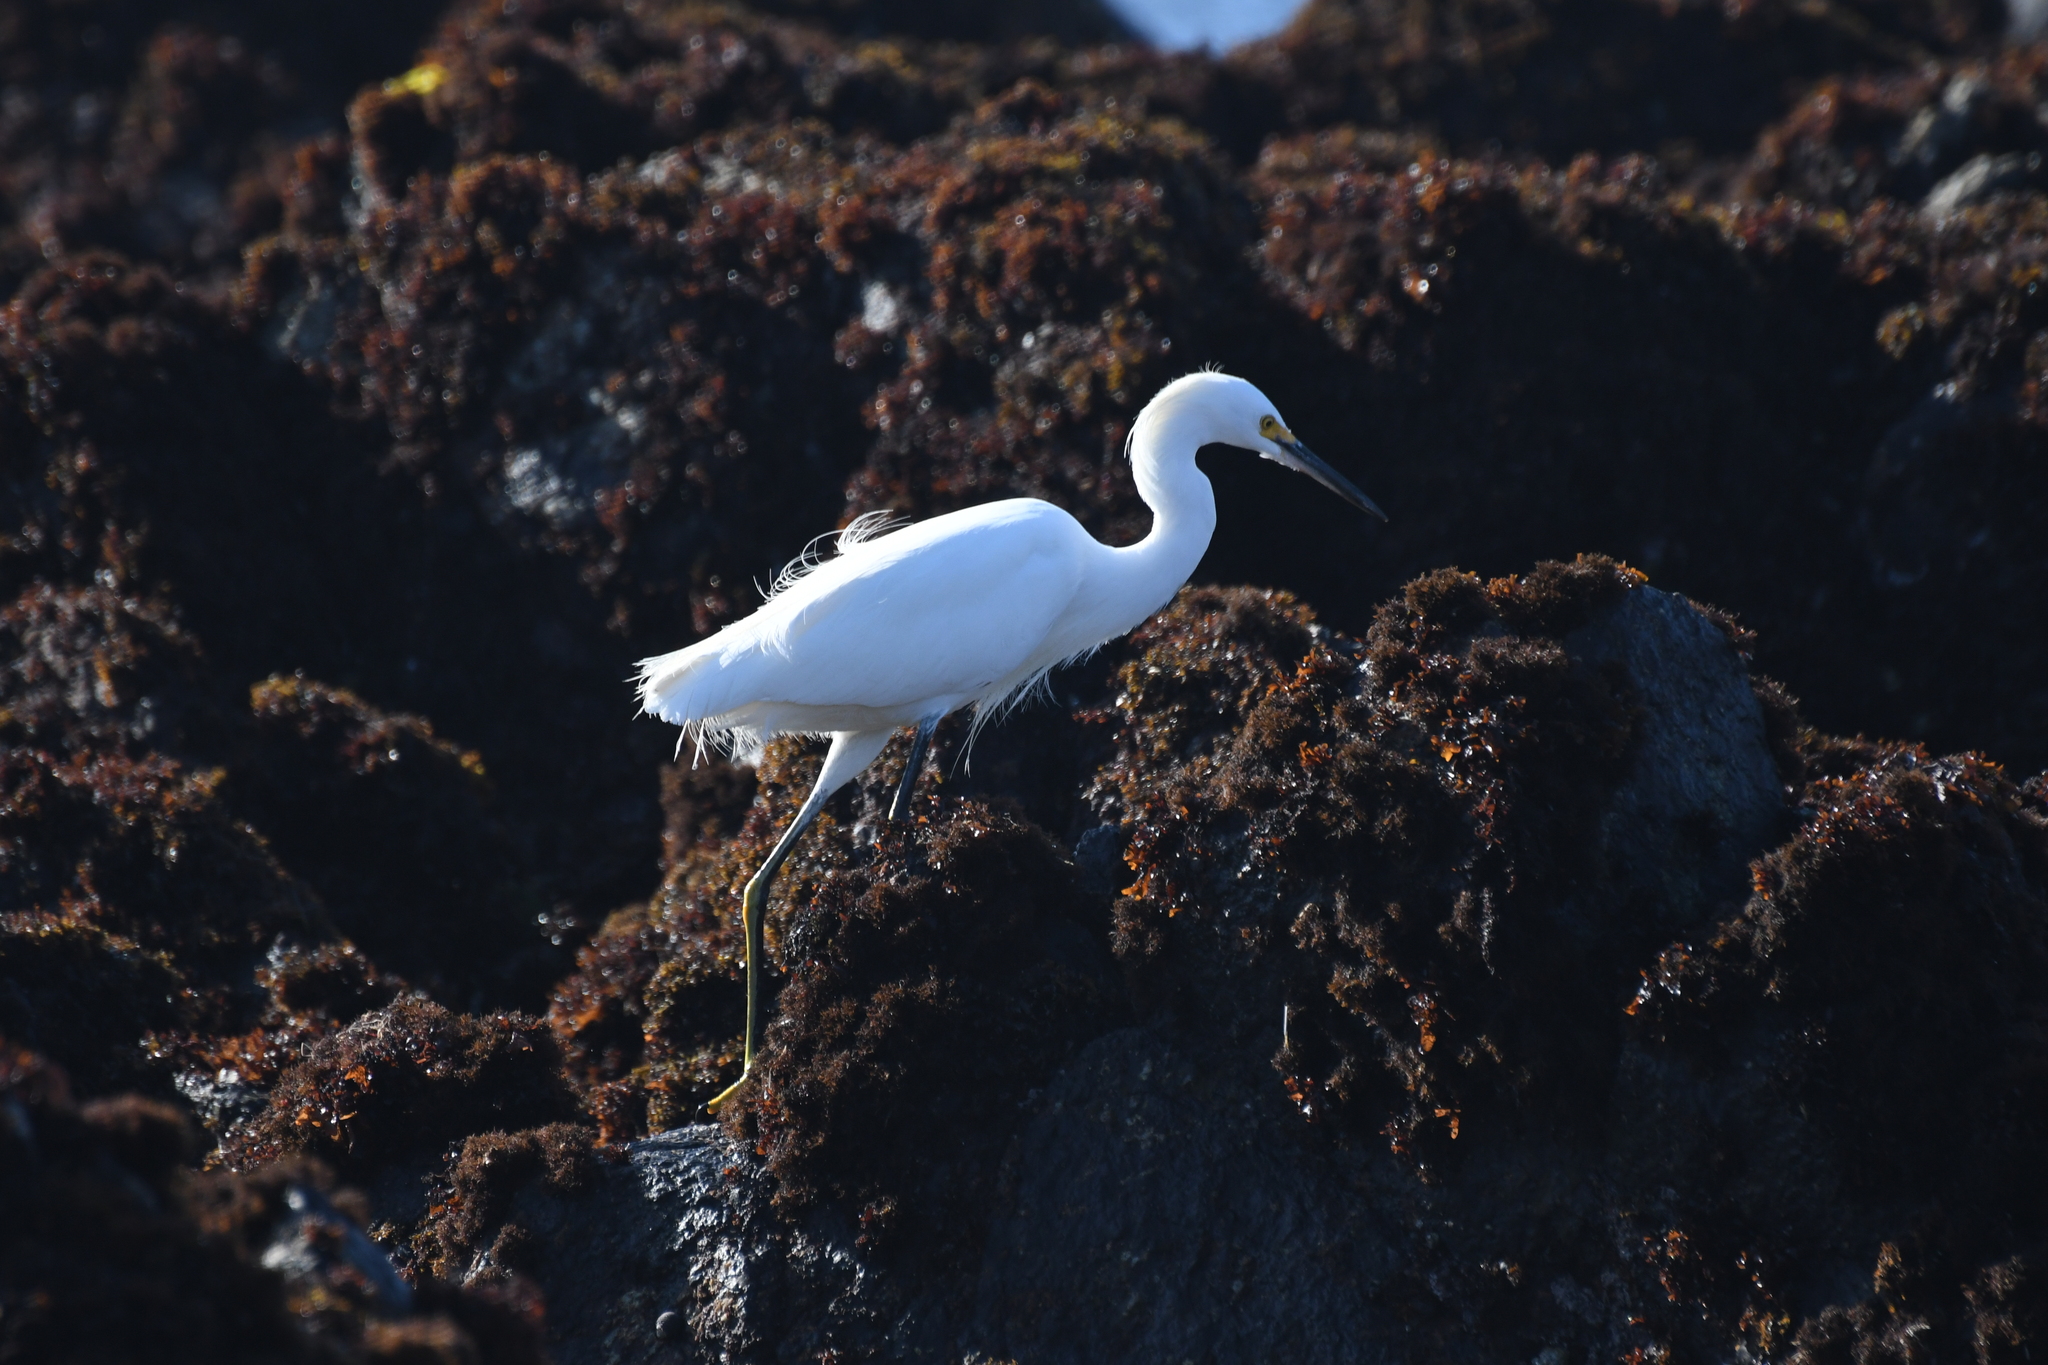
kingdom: Animalia
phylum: Chordata
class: Aves
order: Pelecaniformes
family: Ardeidae
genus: Egretta
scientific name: Egretta thula
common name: Snowy egret
